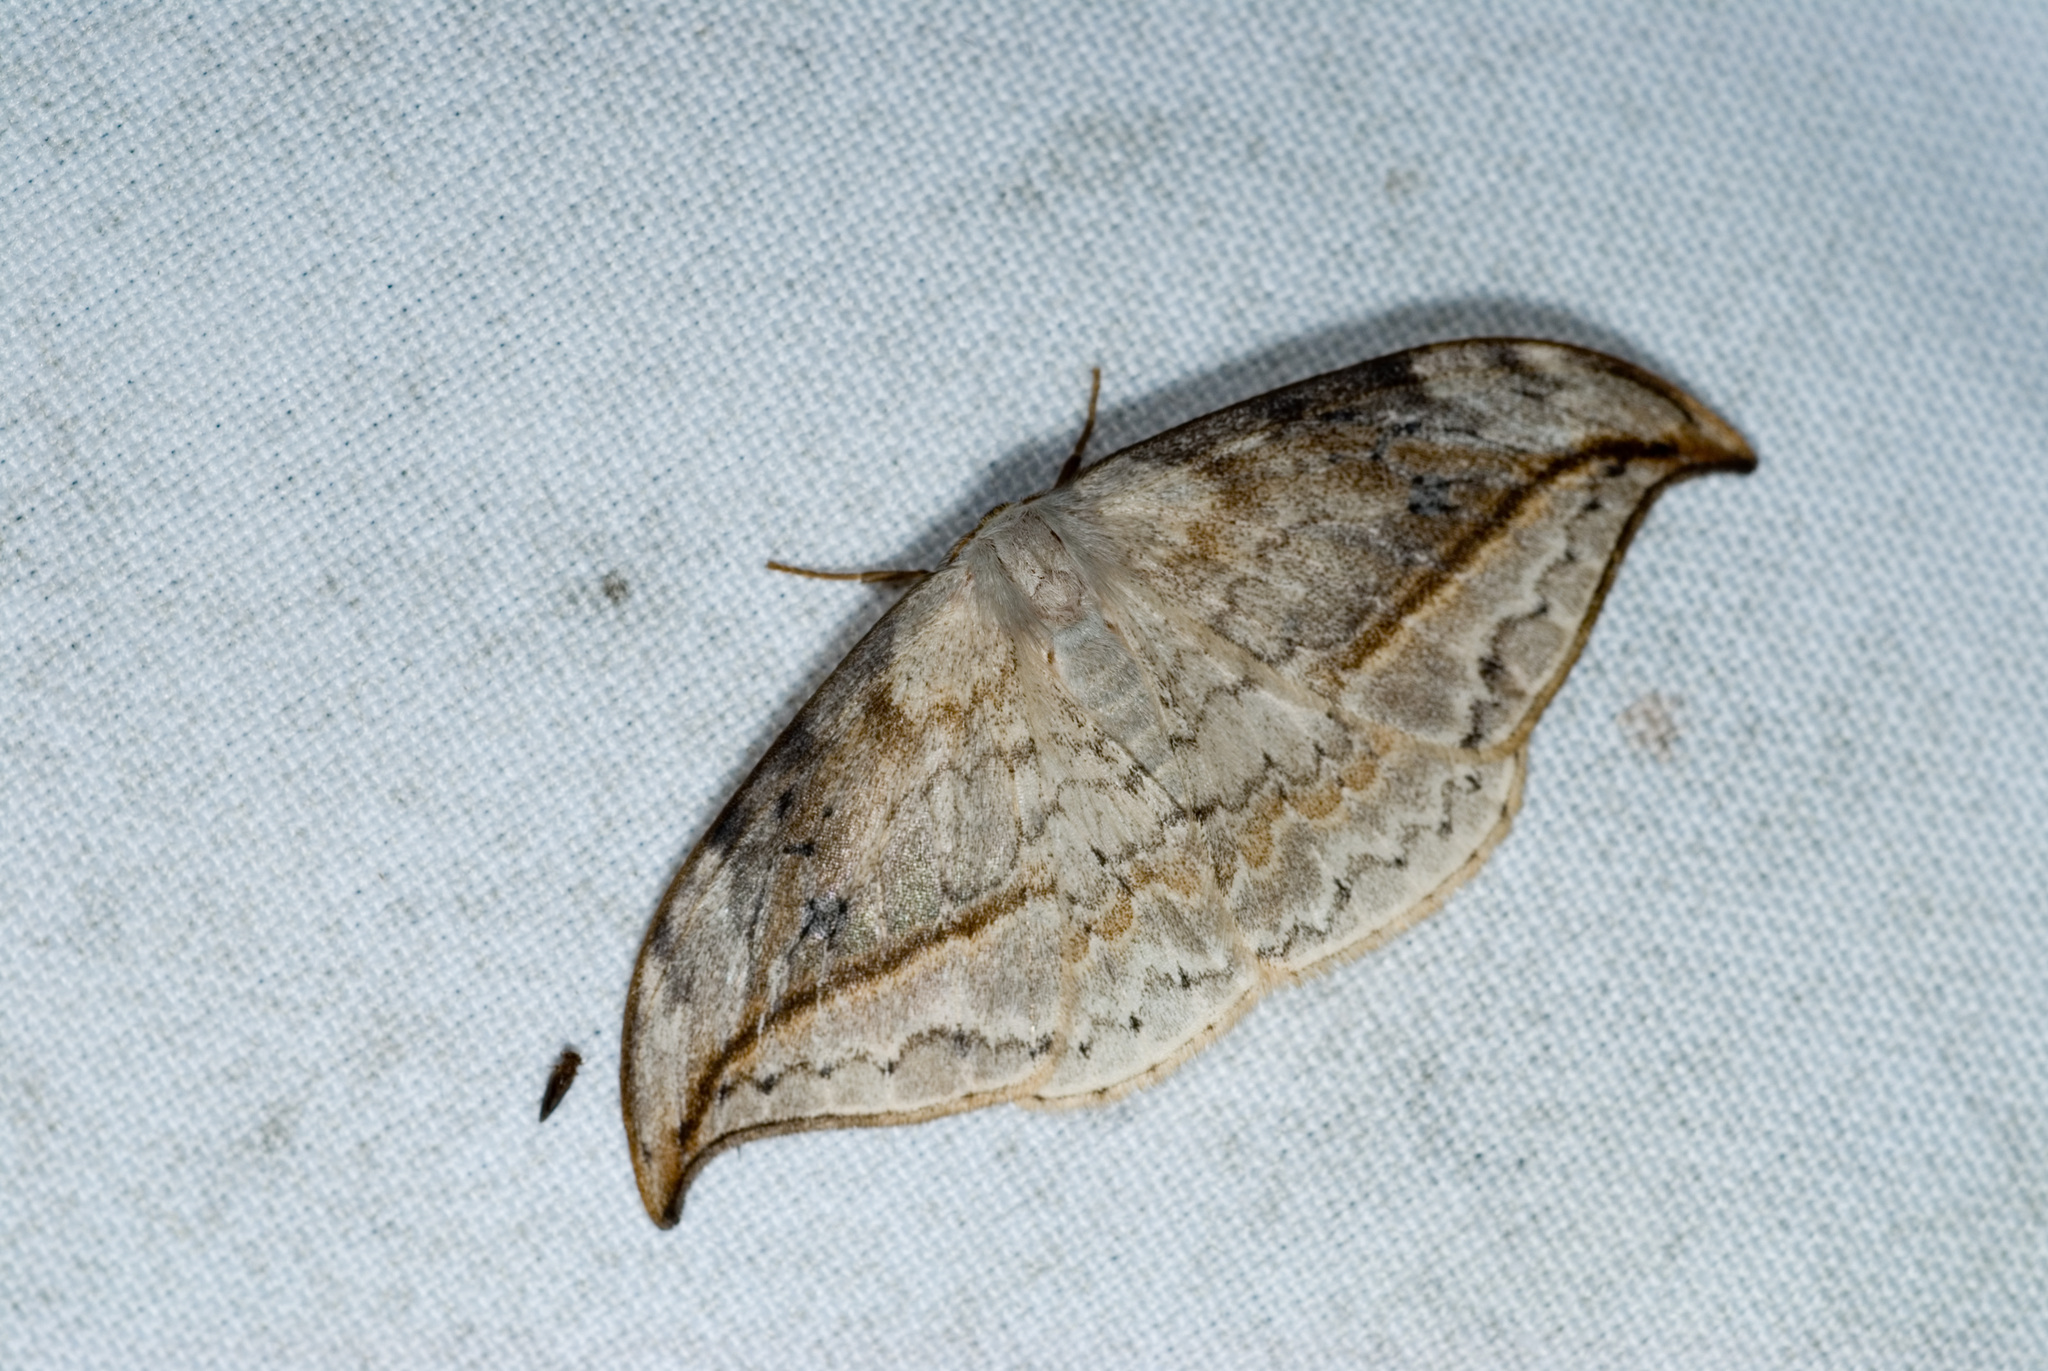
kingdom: Animalia
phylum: Arthropoda
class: Insecta
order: Lepidoptera
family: Drepanidae
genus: Drepana
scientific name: Drepana pallida
